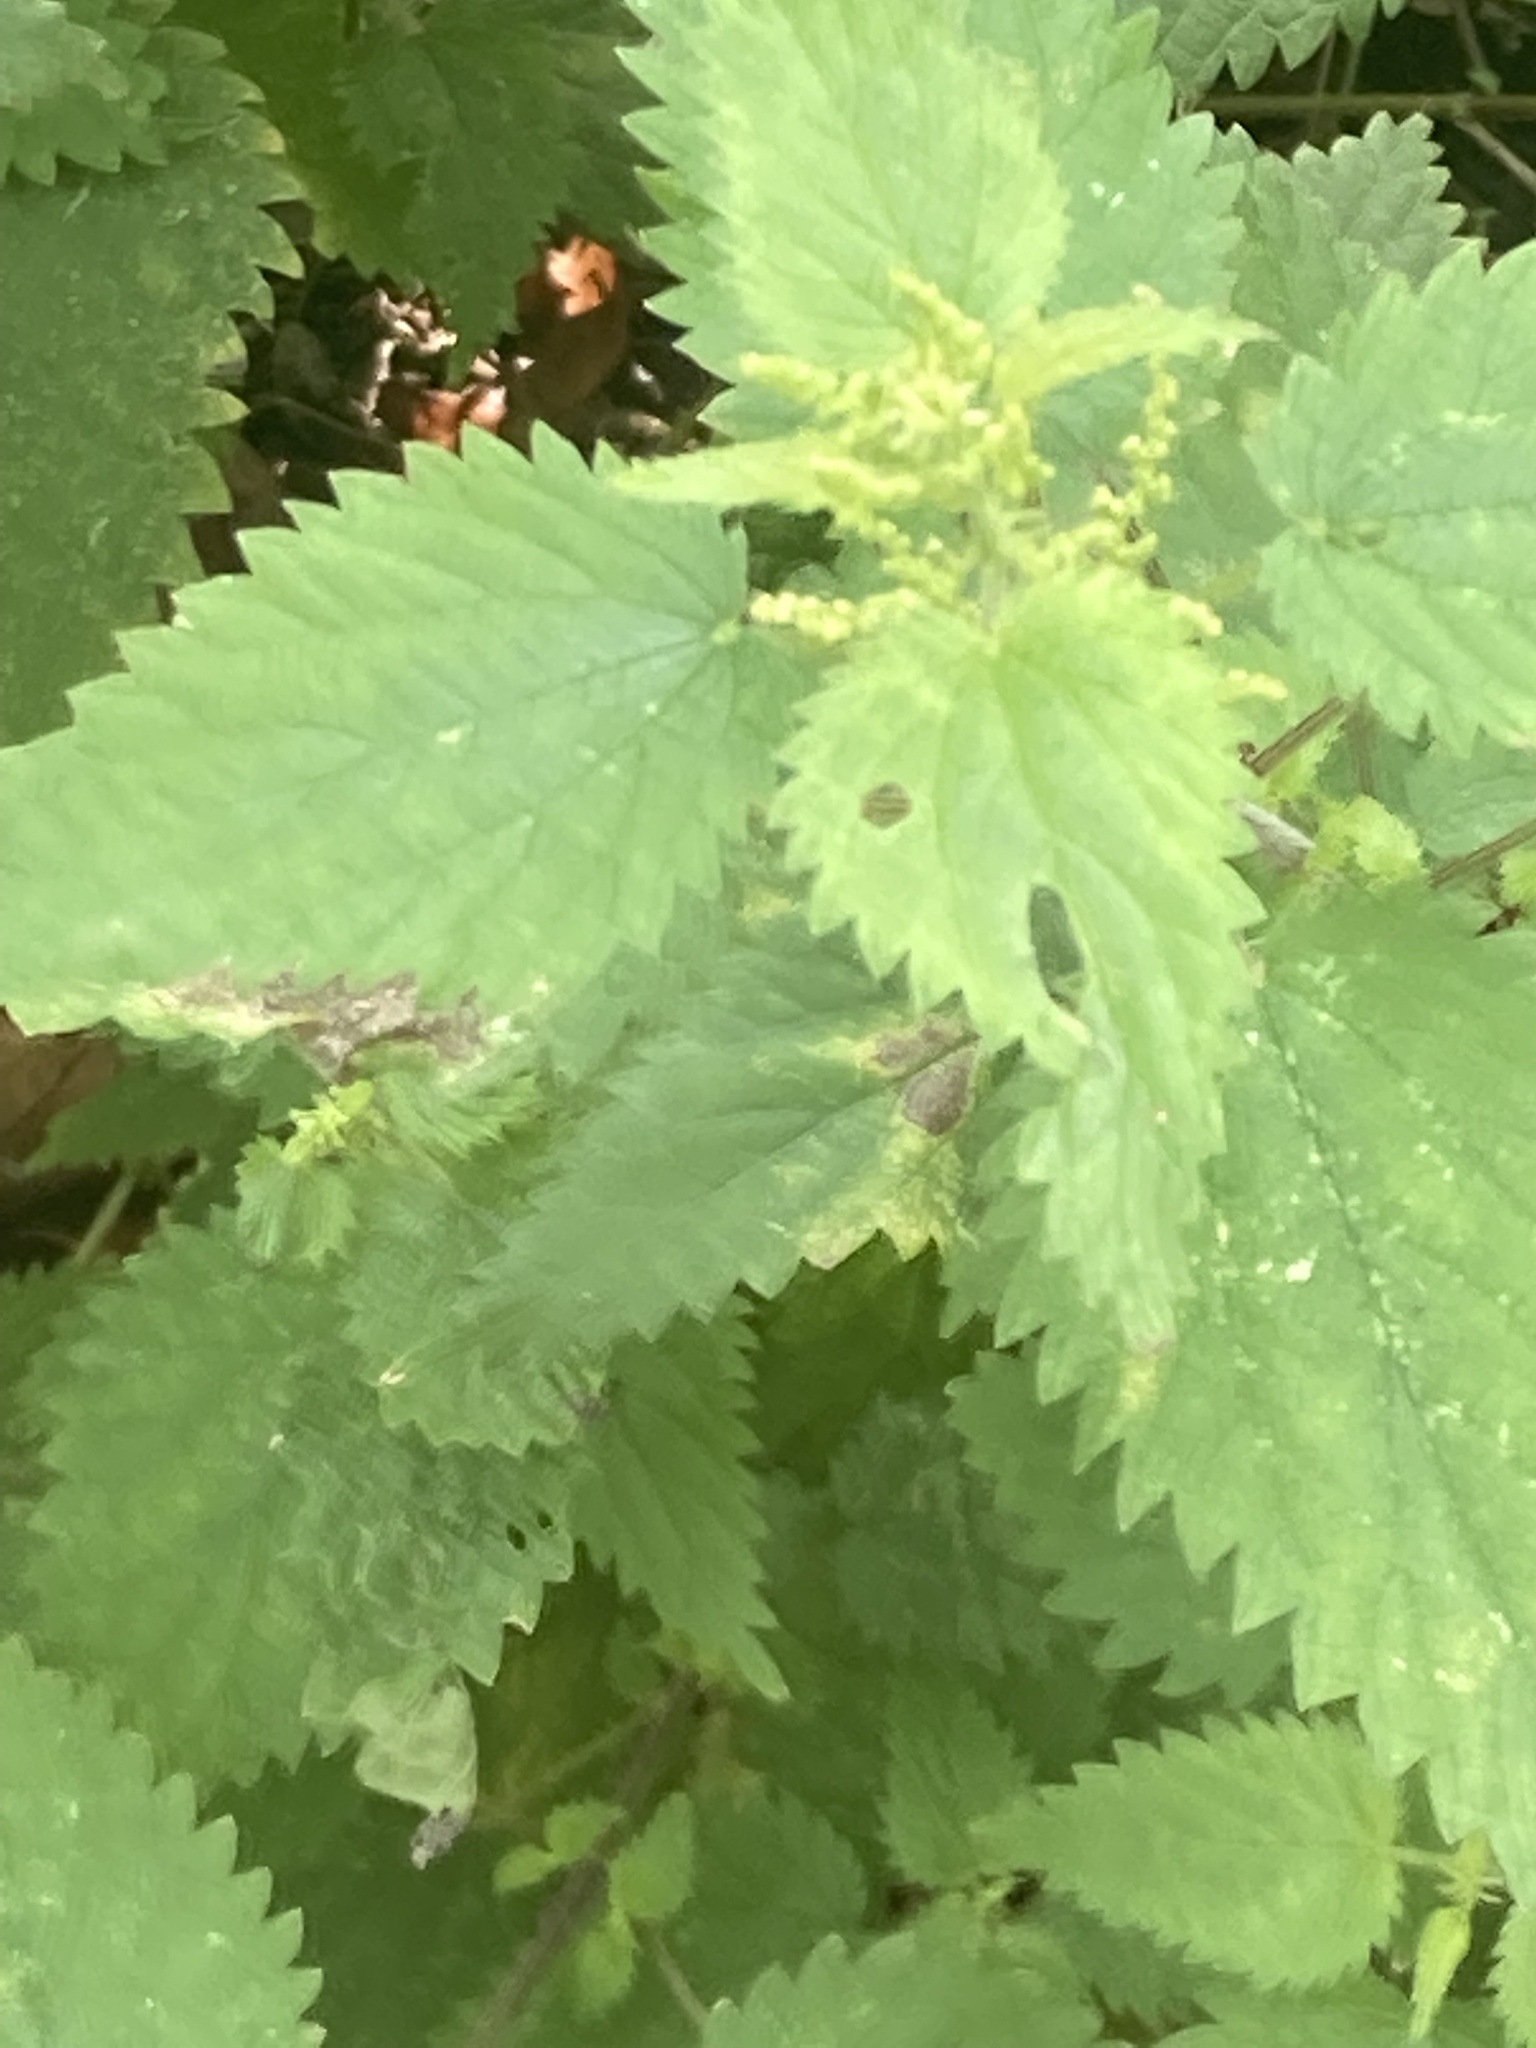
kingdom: Plantae
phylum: Tracheophyta
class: Magnoliopsida
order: Rosales
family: Urticaceae
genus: Urtica
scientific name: Urtica dioica
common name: Common nettle
